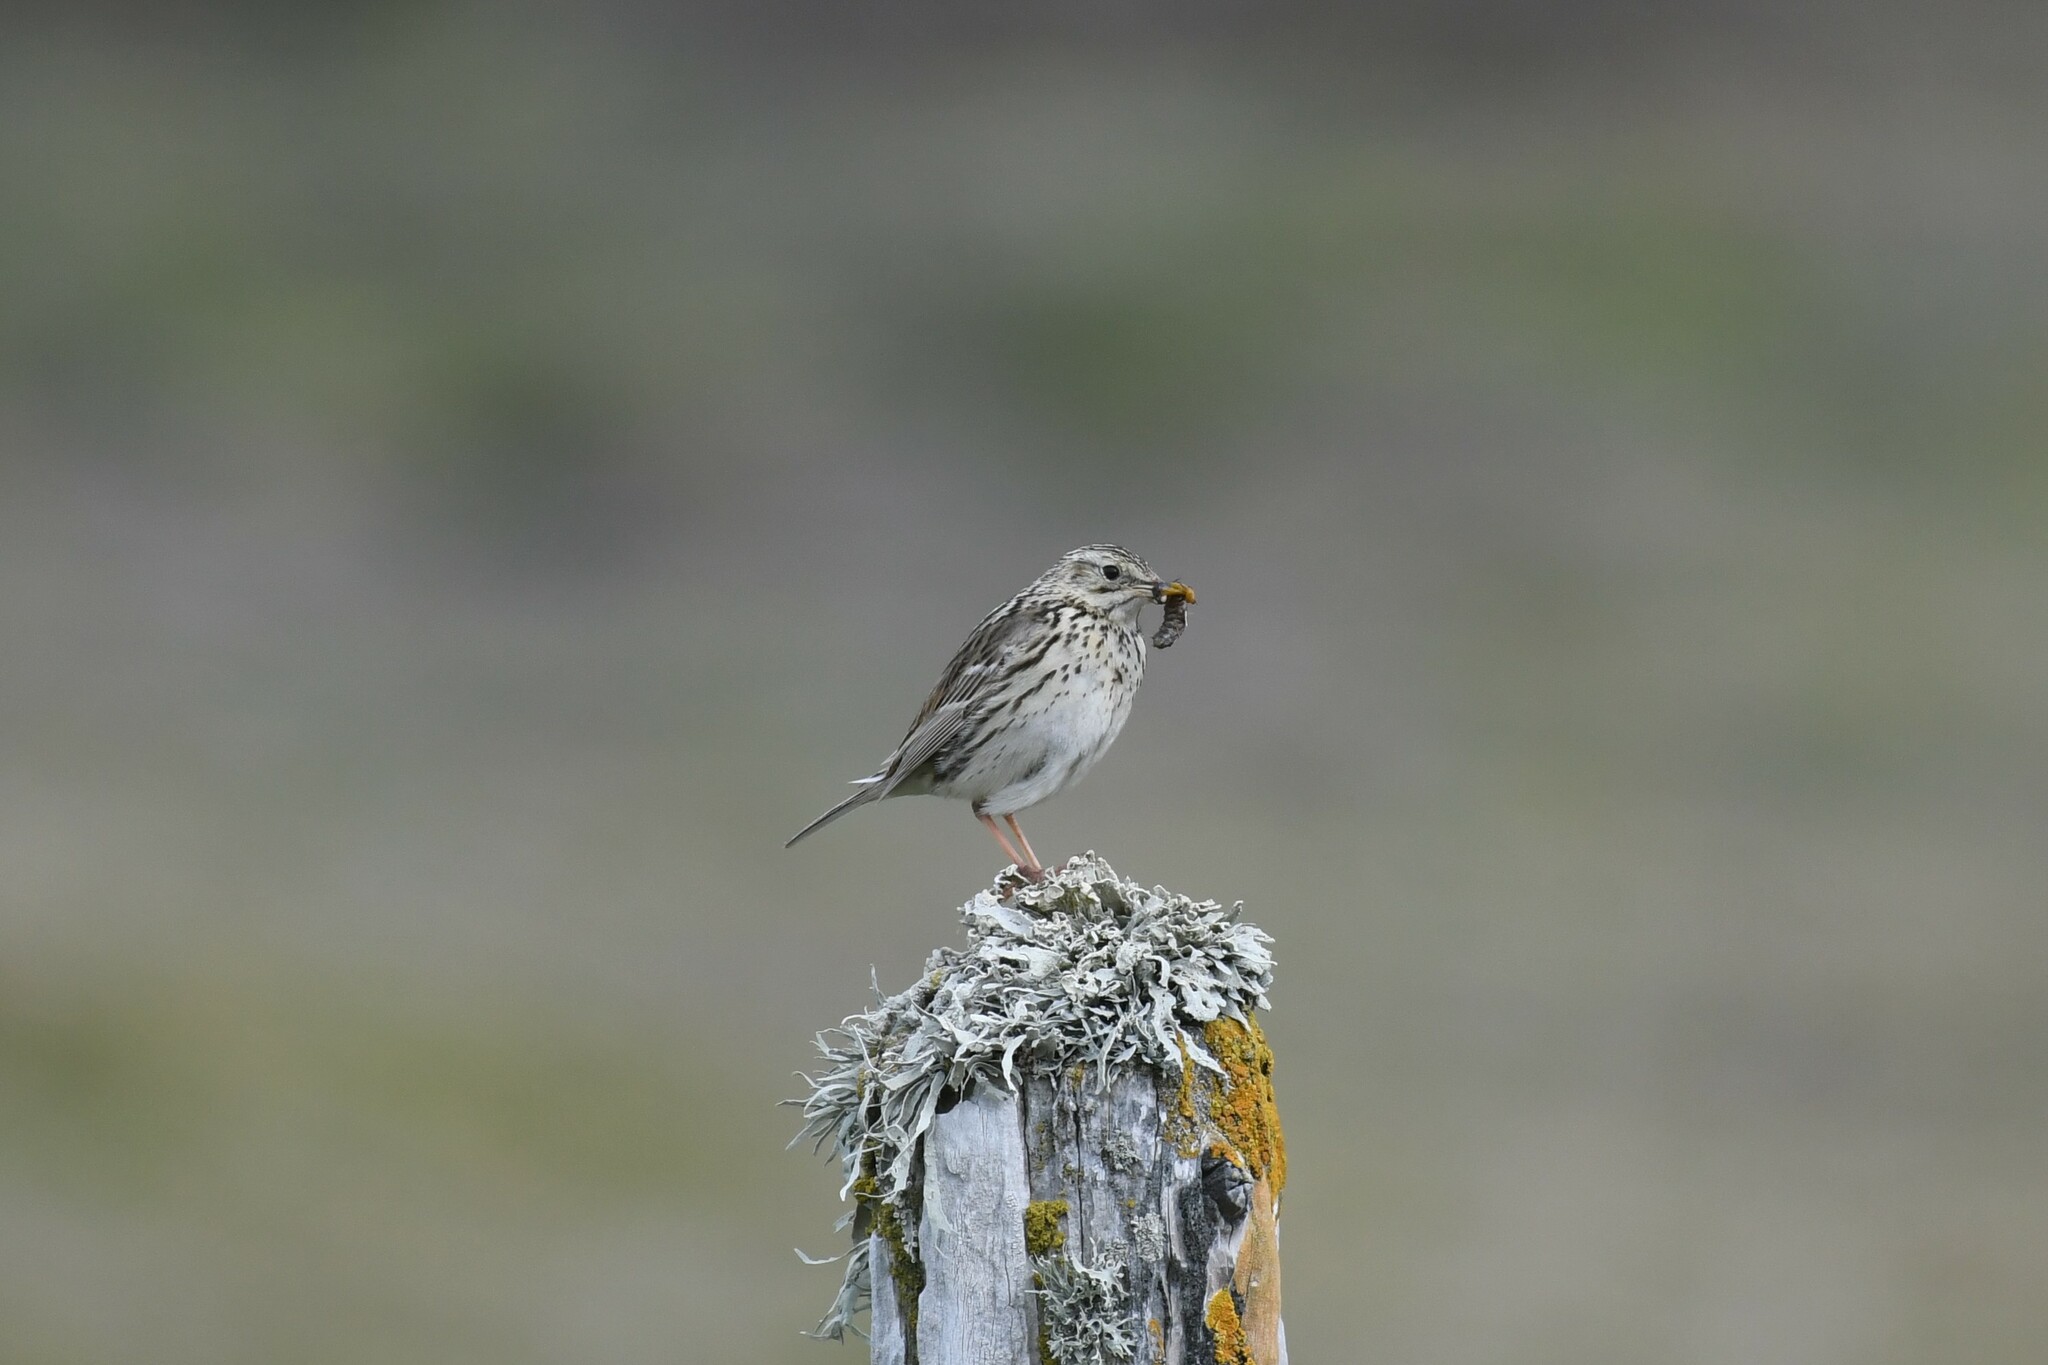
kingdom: Animalia
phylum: Chordata
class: Aves
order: Passeriformes
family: Motacillidae
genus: Anthus
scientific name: Anthus correndera
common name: Correndera pipit
